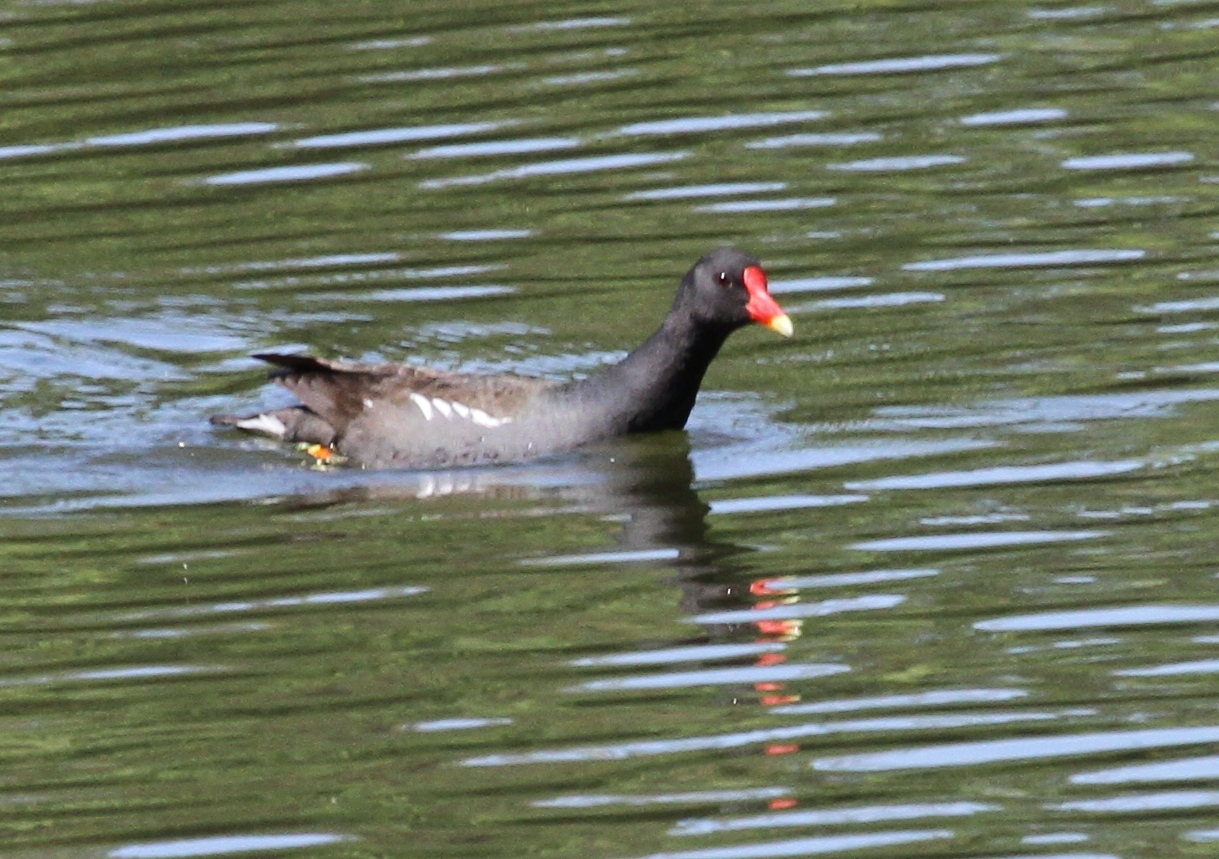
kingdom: Animalia
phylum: Chordata
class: Aves
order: Gruiformes
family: Rallidae
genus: Gallinula
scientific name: Gallinula chloropus
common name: Common moorhen
